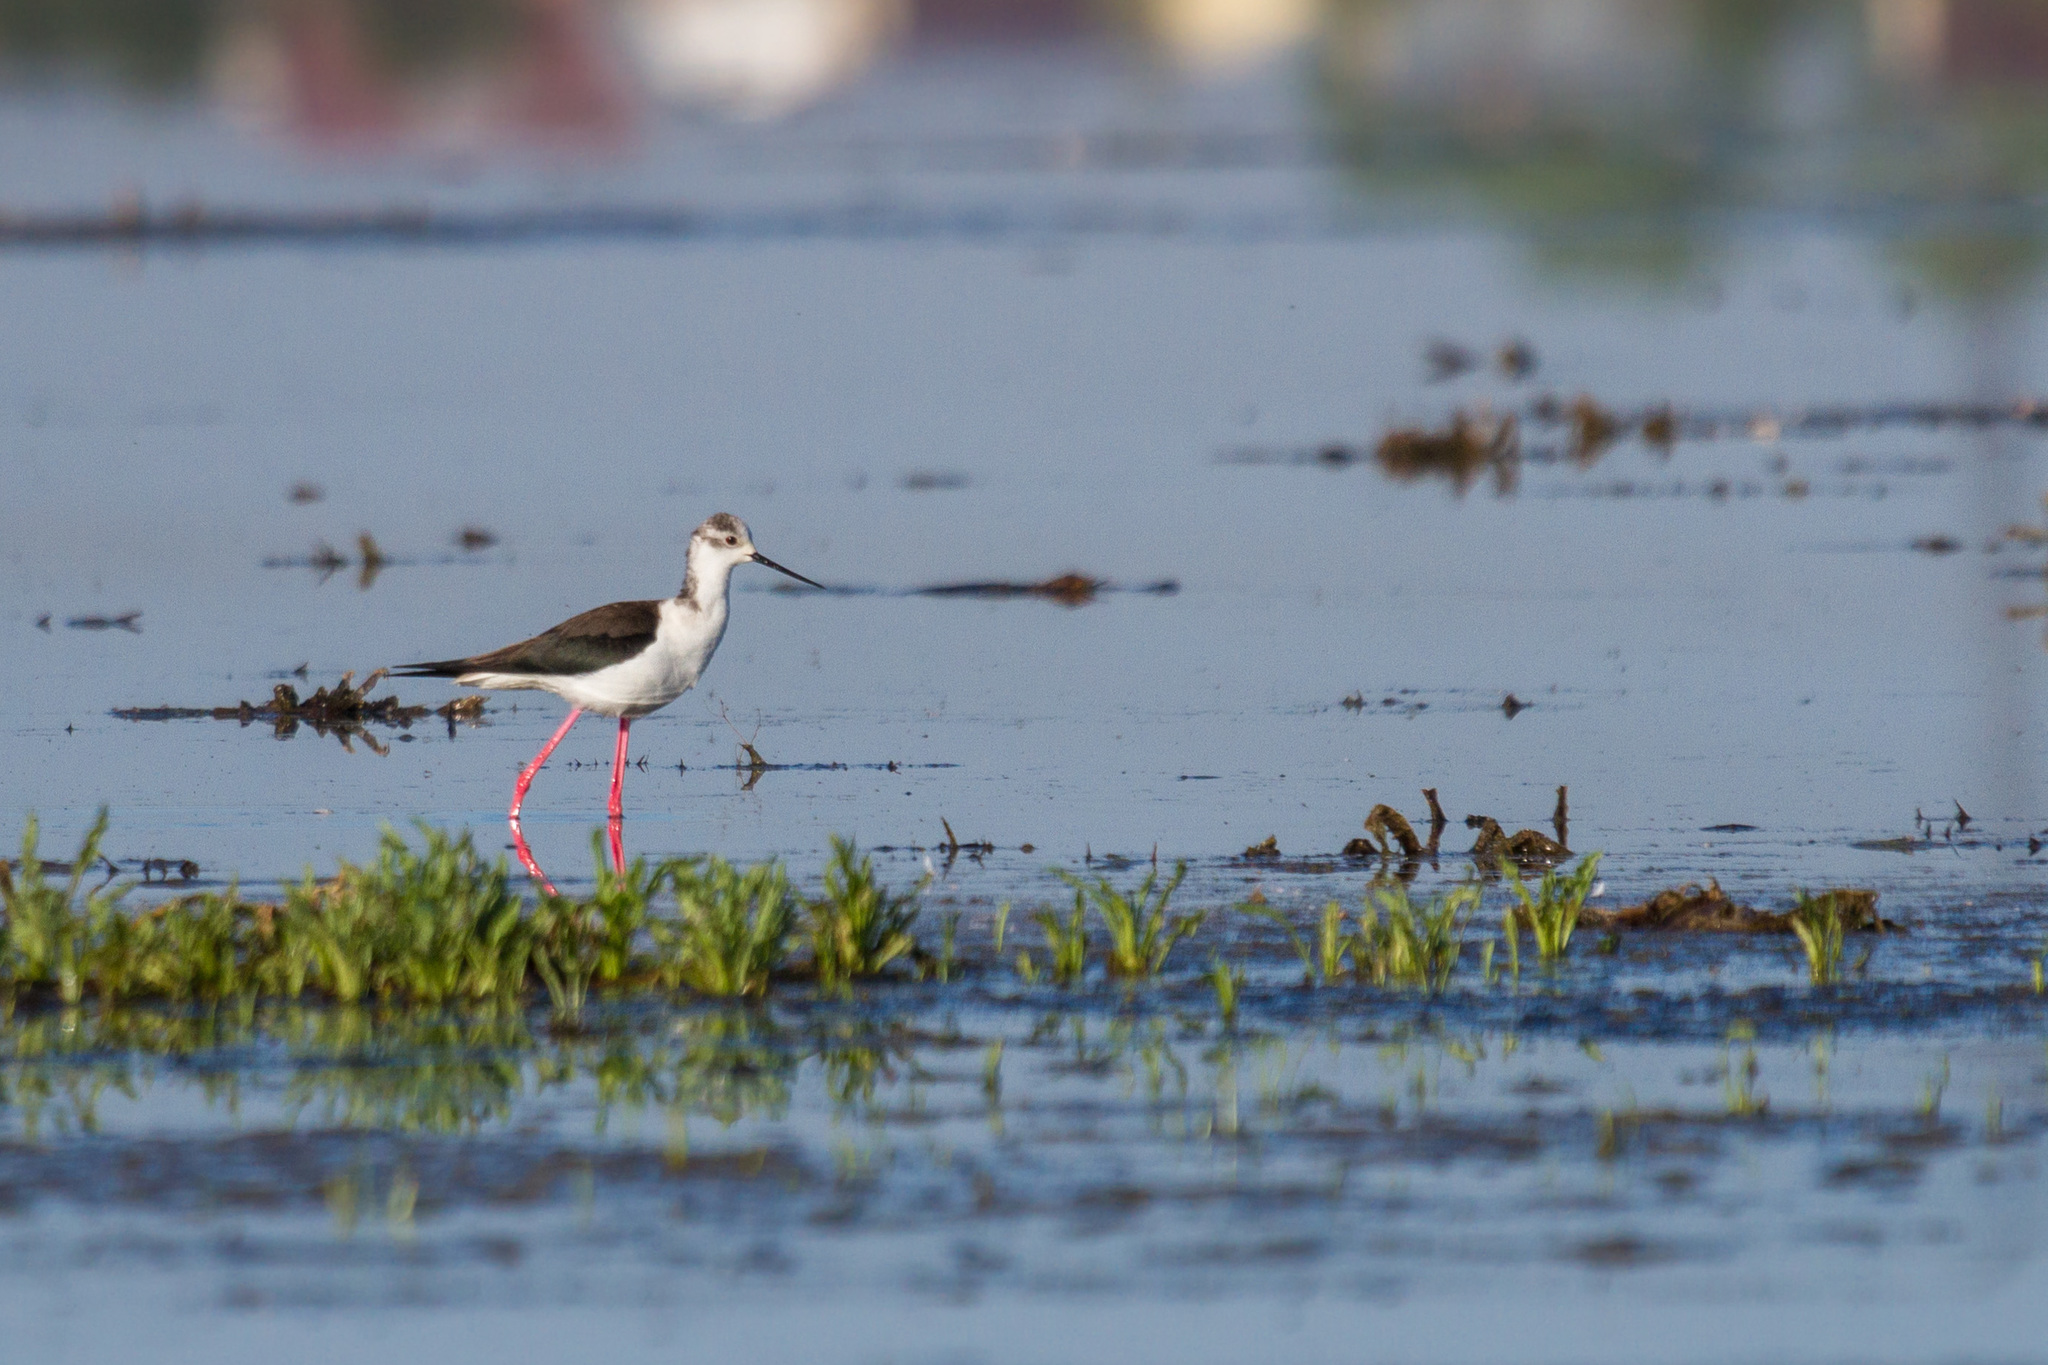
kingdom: Animalia
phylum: Chordata
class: Aves
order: Charadriiformes
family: Recurvirostridae
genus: Himantopus
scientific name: Himantopus himantopus
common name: Black-winged stilt
